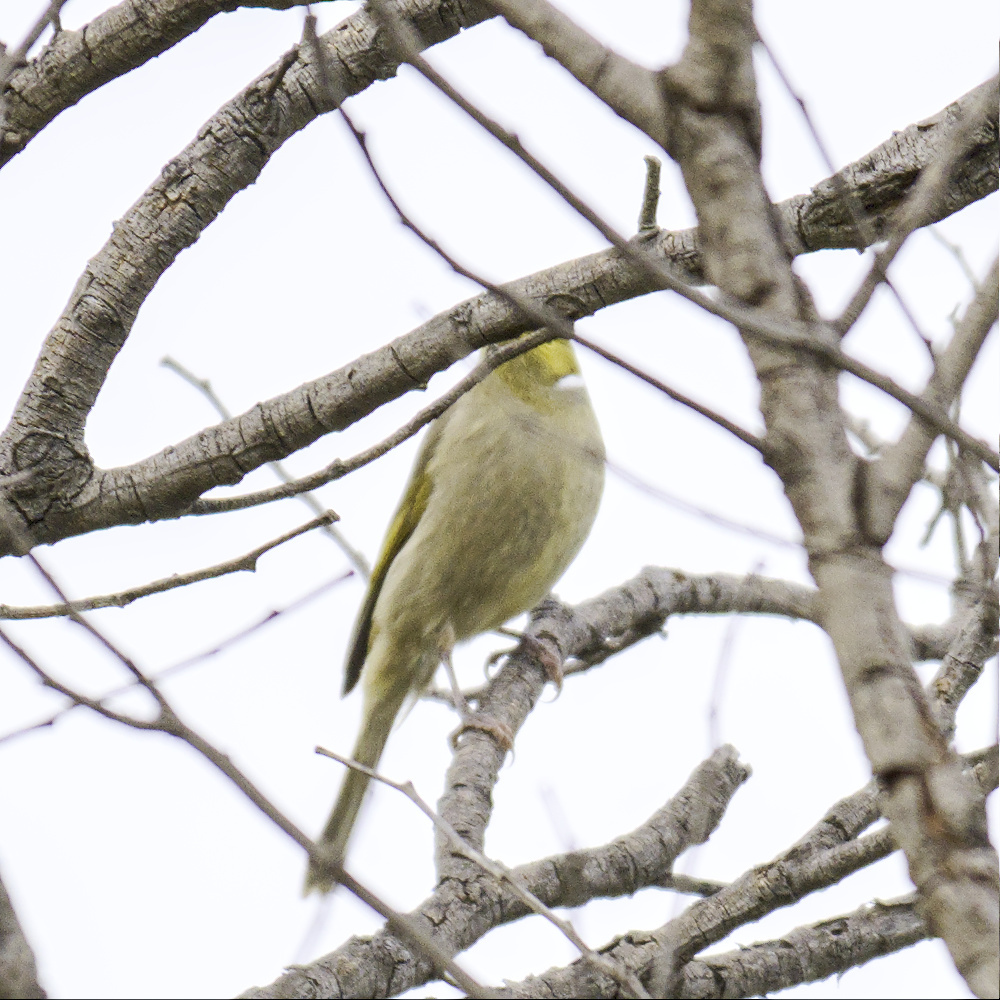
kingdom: Animalia
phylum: Chordata
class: Aves
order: Passeriformes
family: Meliphagidae
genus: Ptilotula
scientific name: Ptilotula penicillata
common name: White-plumed honeyeater
